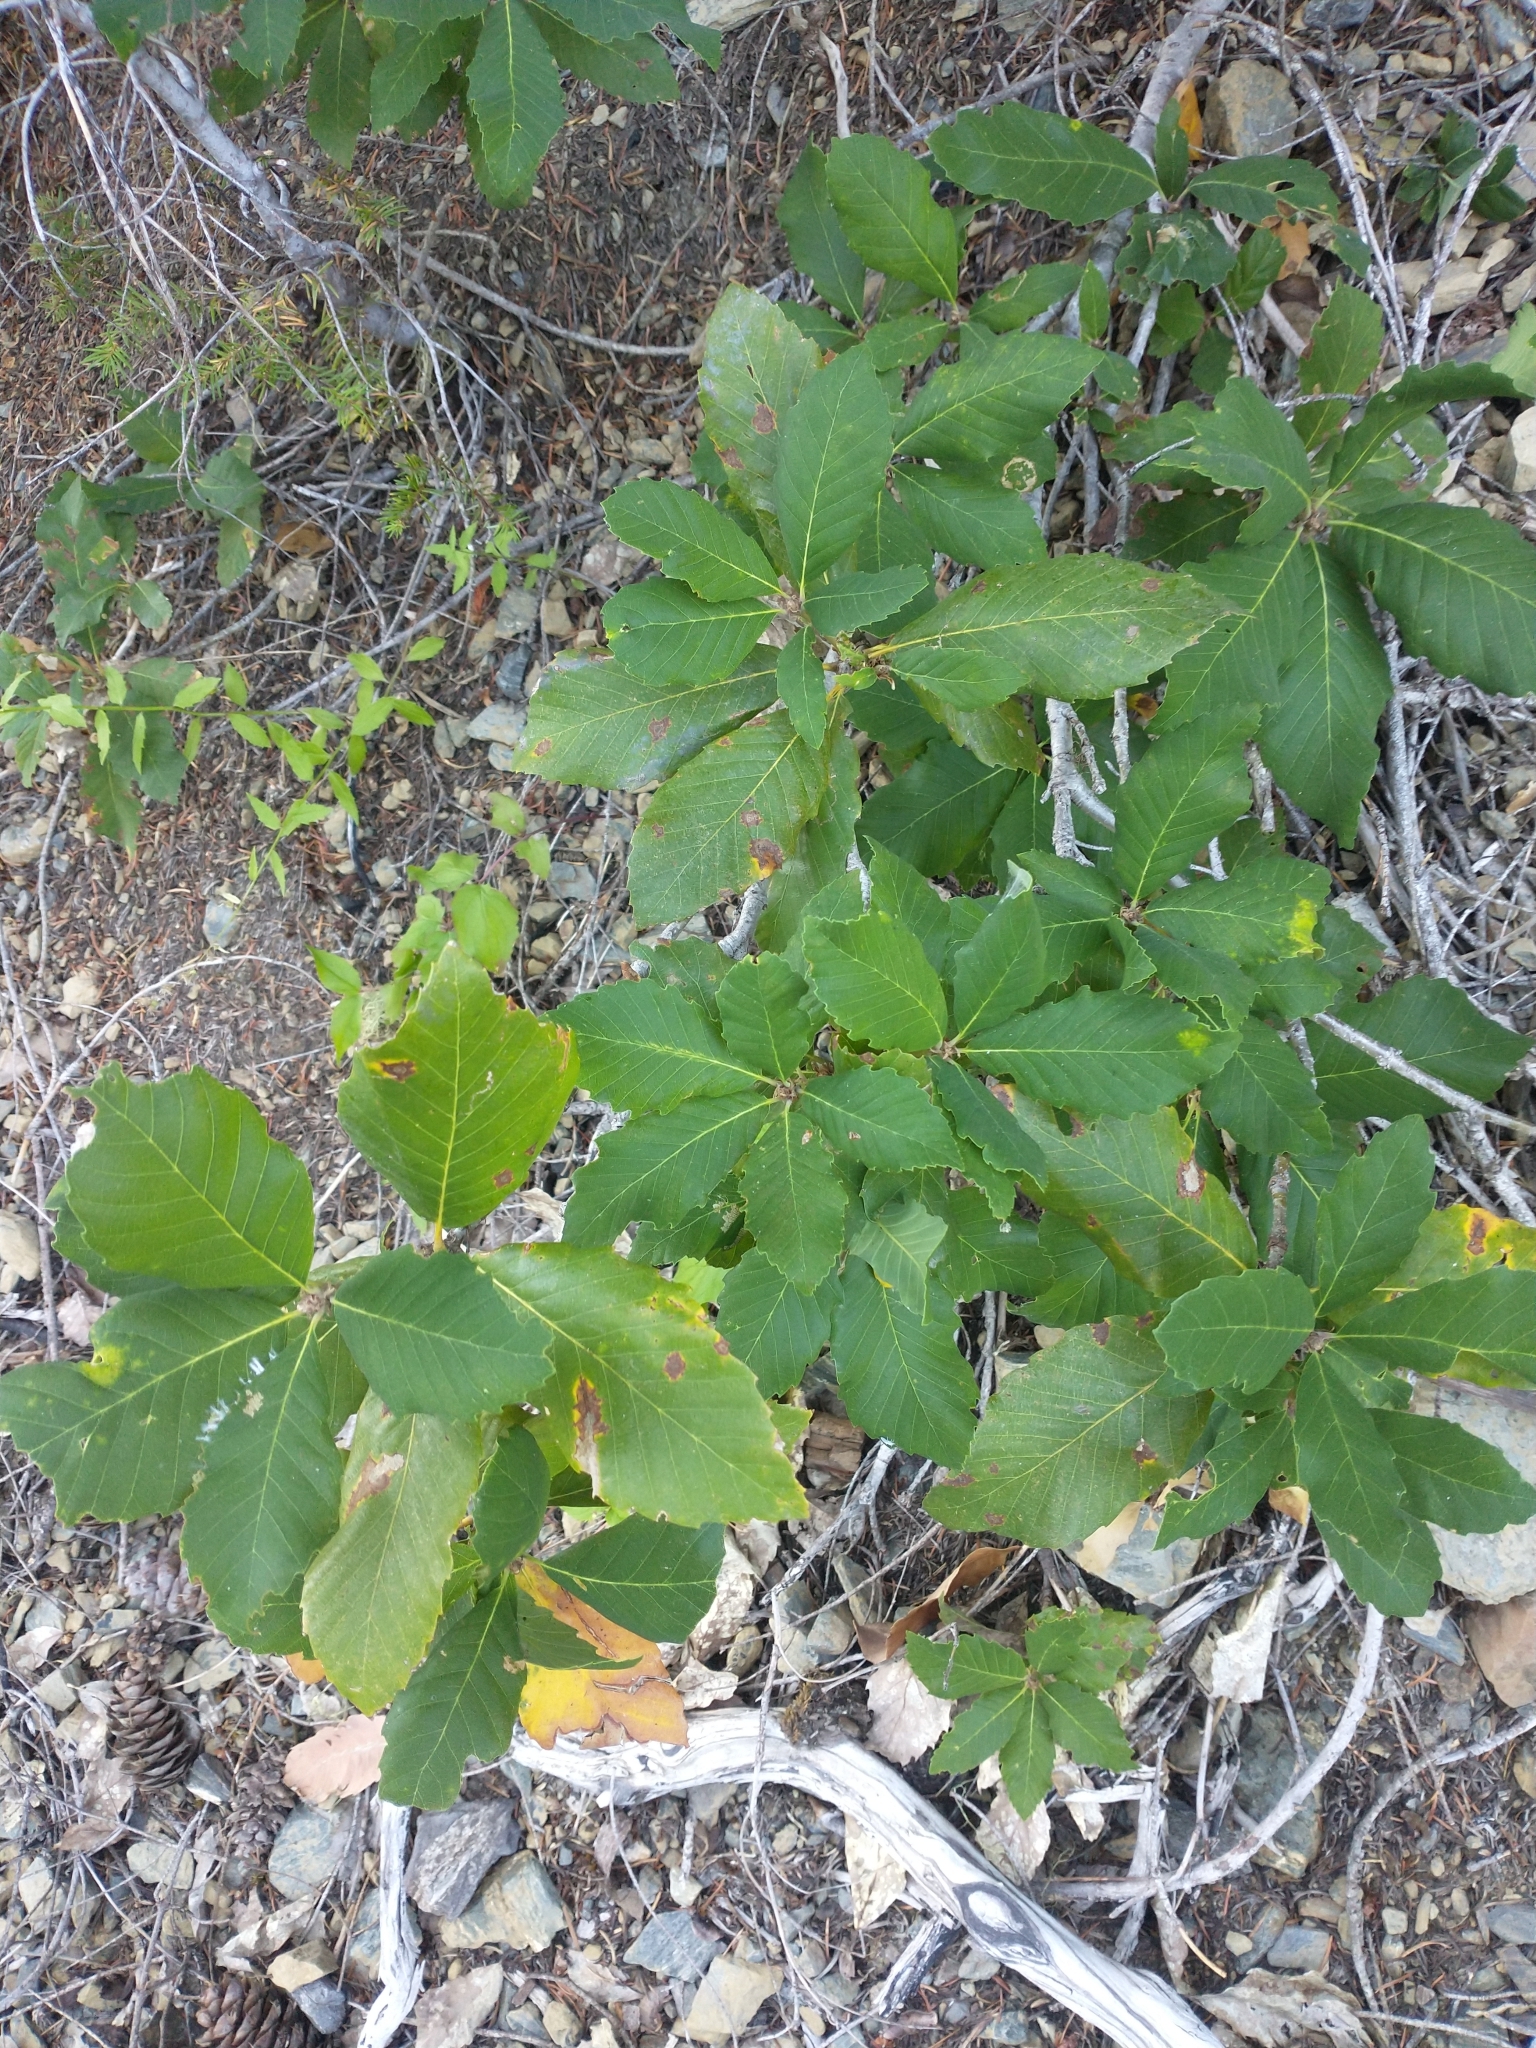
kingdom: Plantae
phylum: Tracheophyta
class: Magnoliopsida
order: Fagales
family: Fagaceae
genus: Quercus
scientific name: Quercus sadleriana
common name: Deer oak
